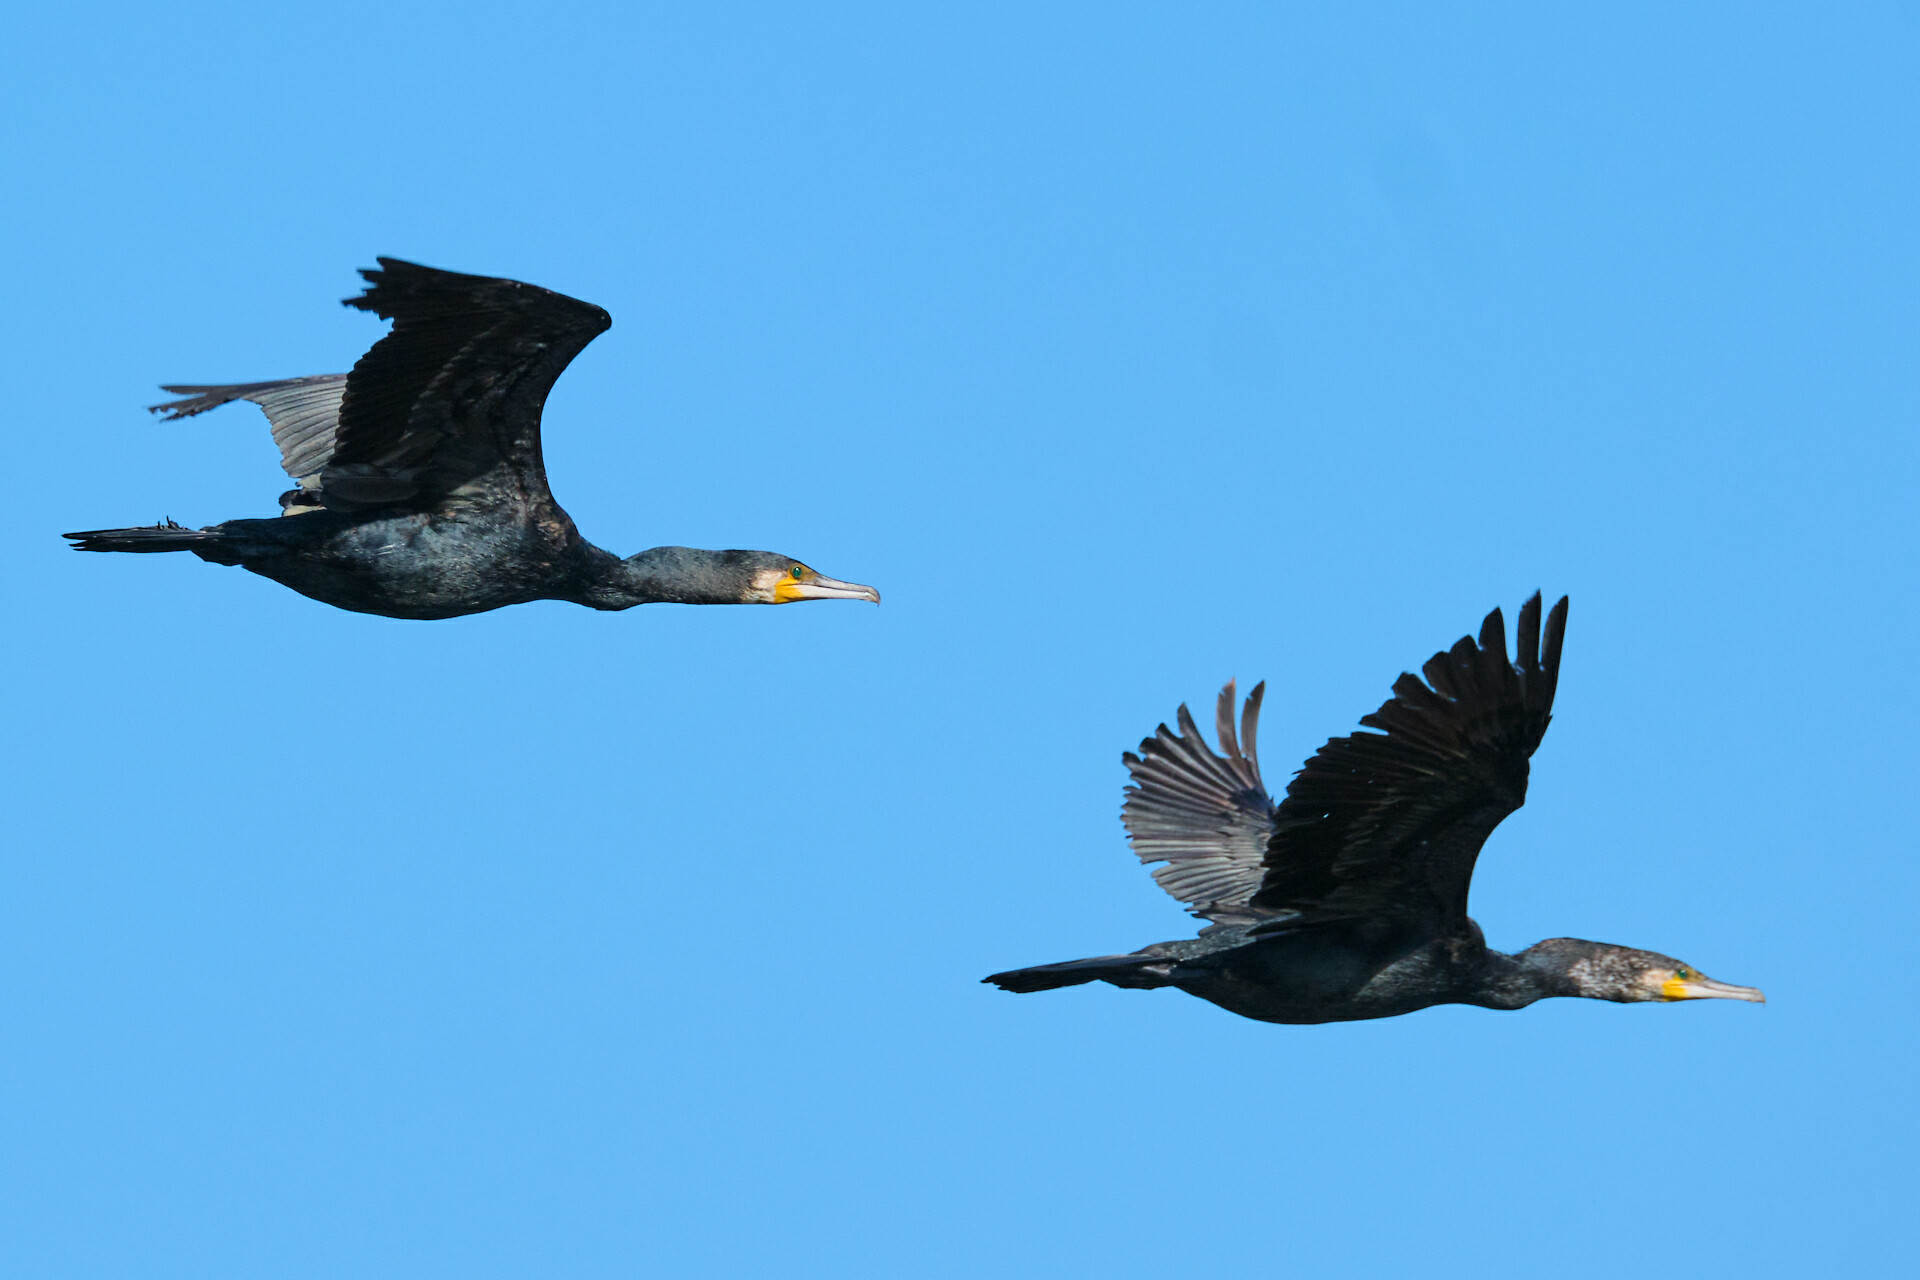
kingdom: Animalia
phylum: Chordata
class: Aves
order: Suliformes
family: Phalacrocoracidae
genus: Phalacrocorax
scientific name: Phalacrocorax carbo
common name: Great cormorant
